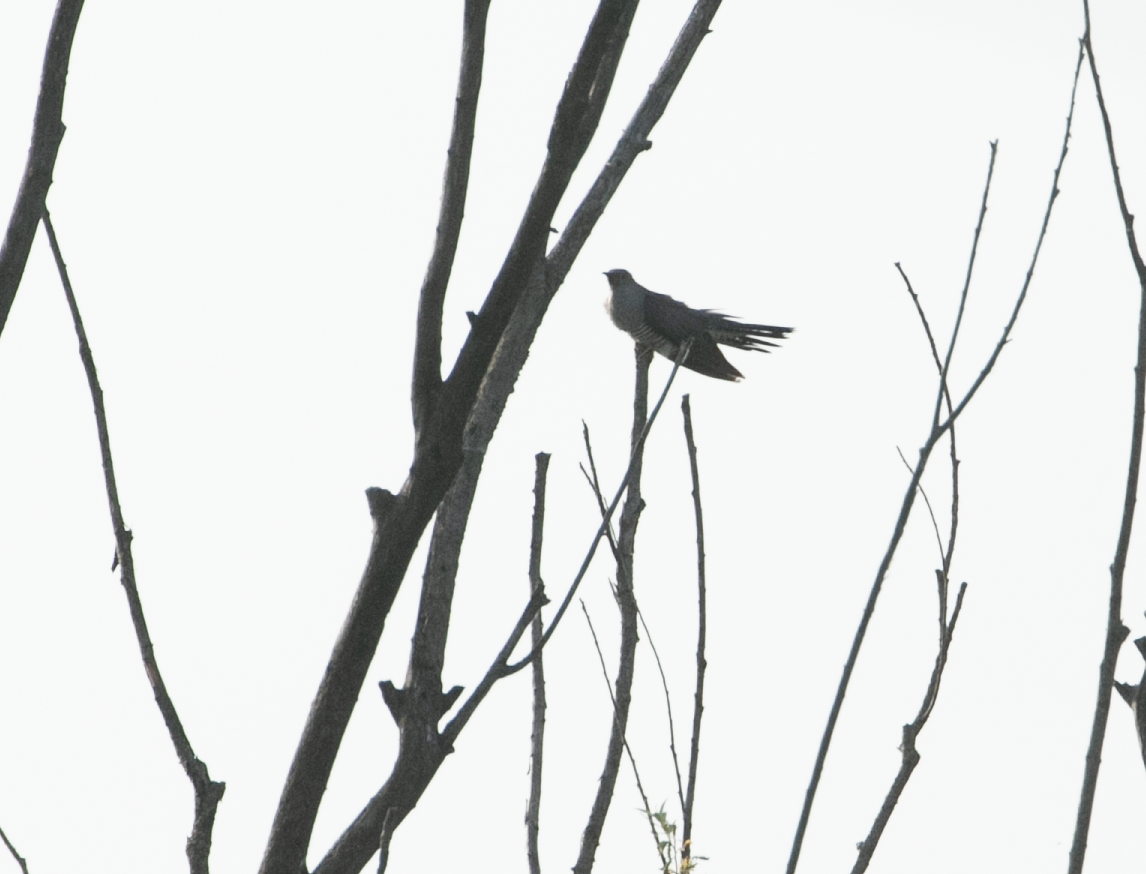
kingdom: Animalia
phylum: Chordata
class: Aves
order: Cuculiformes
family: Cuculidae
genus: Cuculus
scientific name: Cuculus canorus
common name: Common cuckoo
